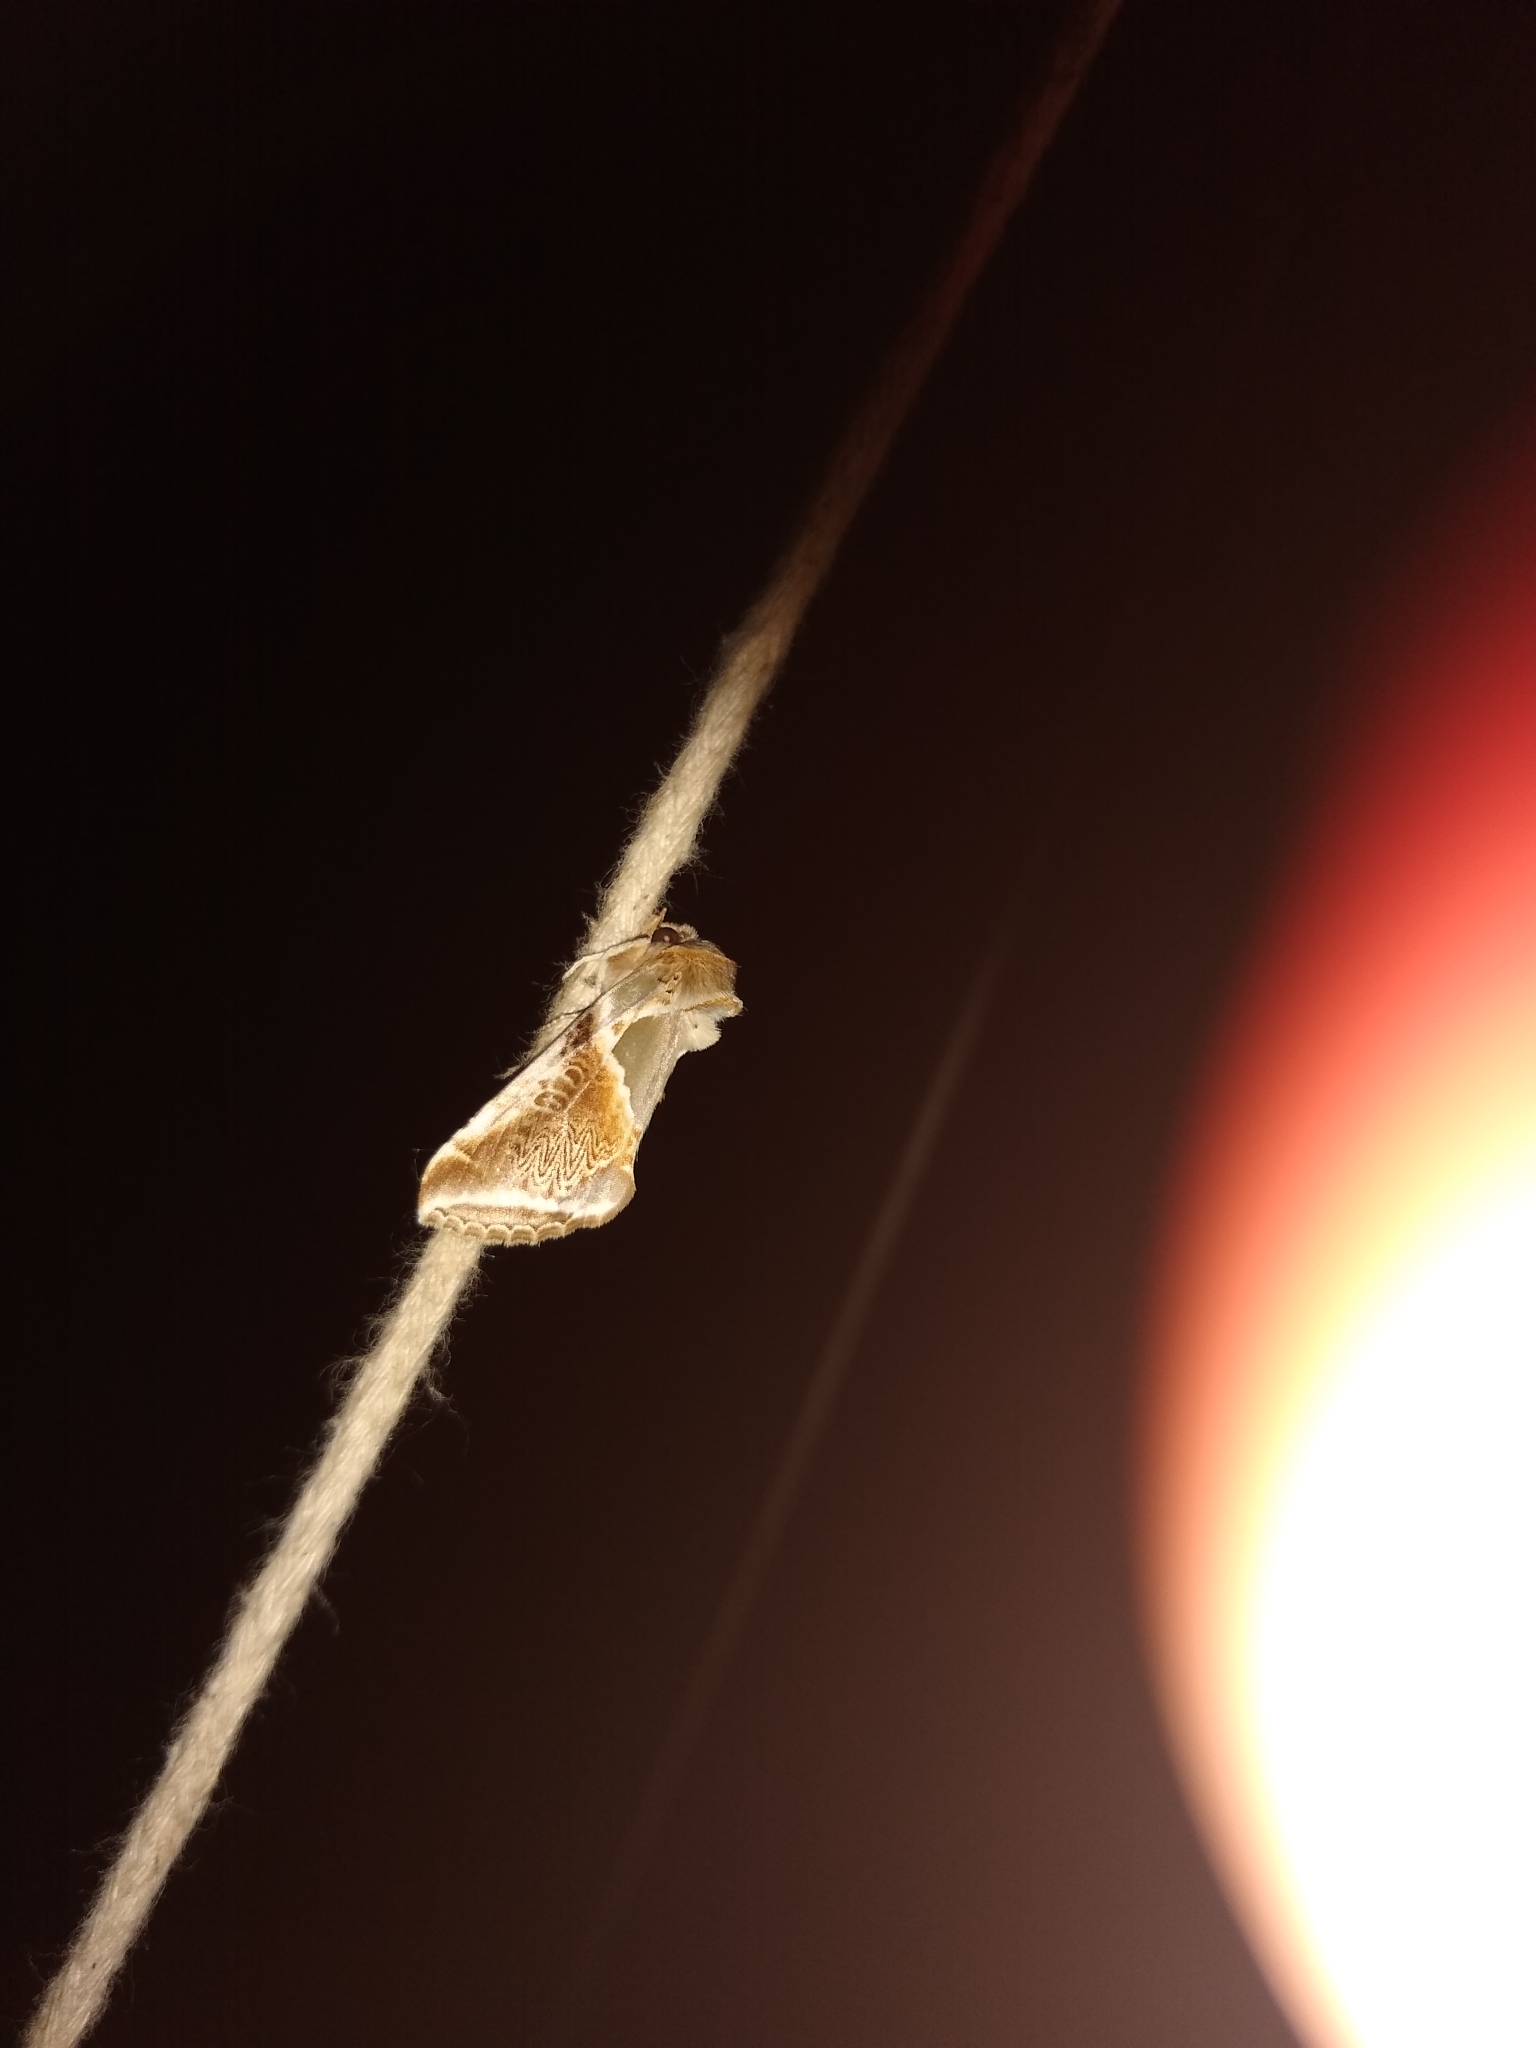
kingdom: Animalia
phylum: Arthropoda
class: Insecta
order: Lepidoptera
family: Drepanidae
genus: Habrosyne
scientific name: Habrosyne pyritoides
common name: Buff arches
